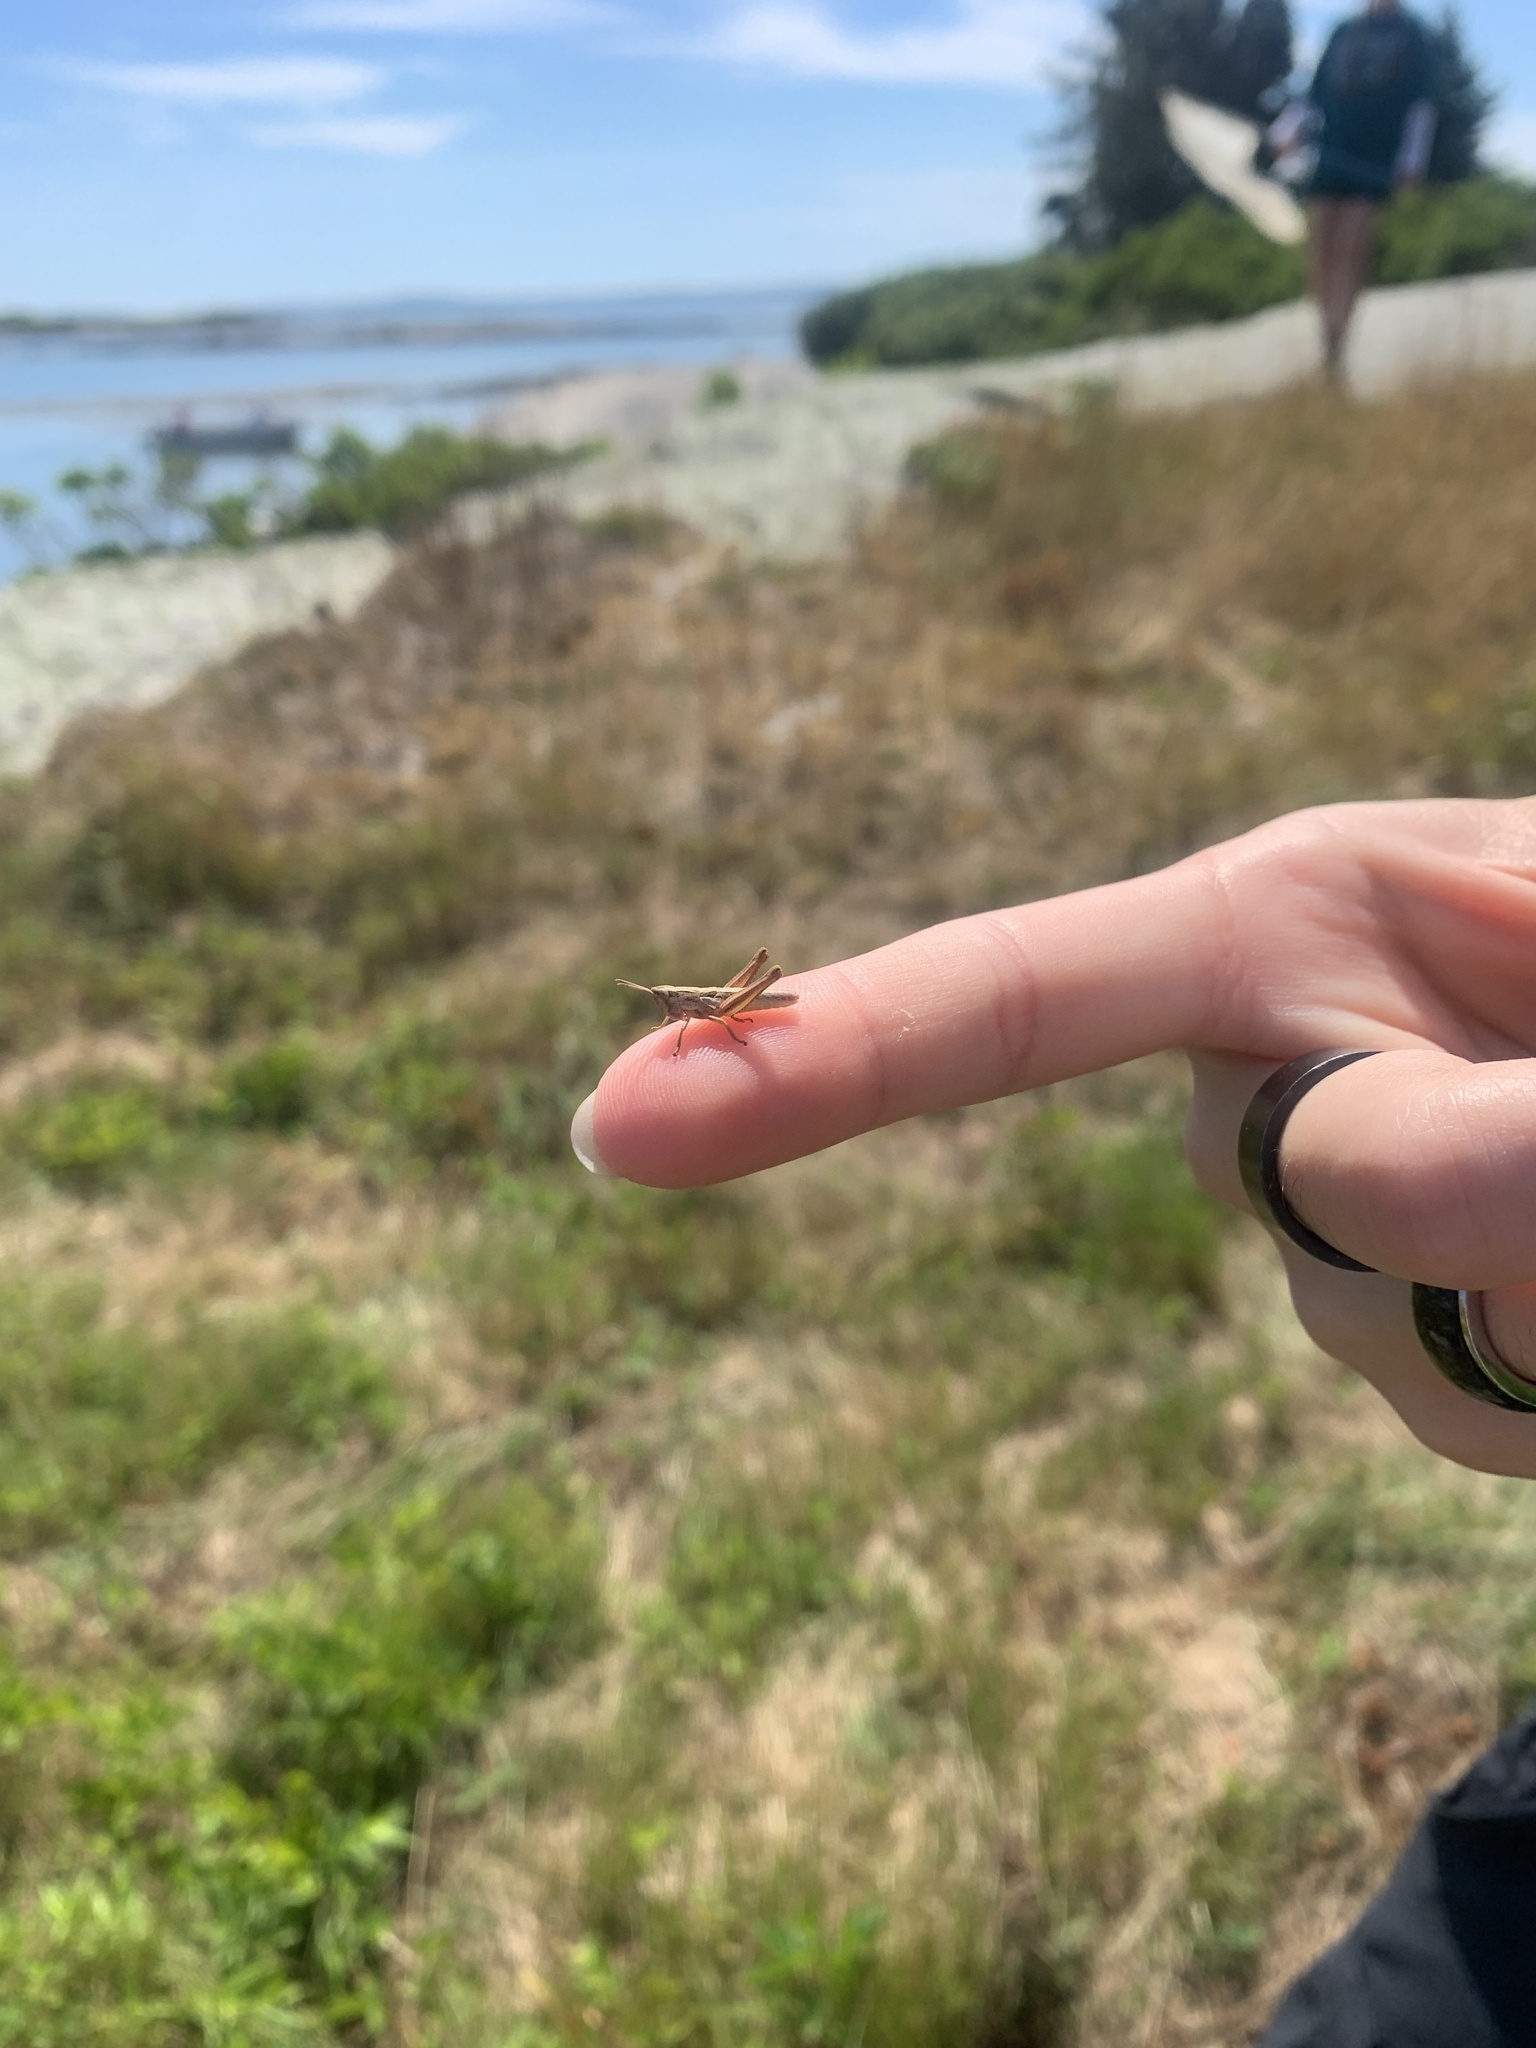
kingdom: Animalia
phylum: Arthropoda
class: Insecta
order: Orthoptera
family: Acrididae
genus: Pseudochorthippus
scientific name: Pseudochorthippus curtipennis
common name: Marsh meadow grasshopper
